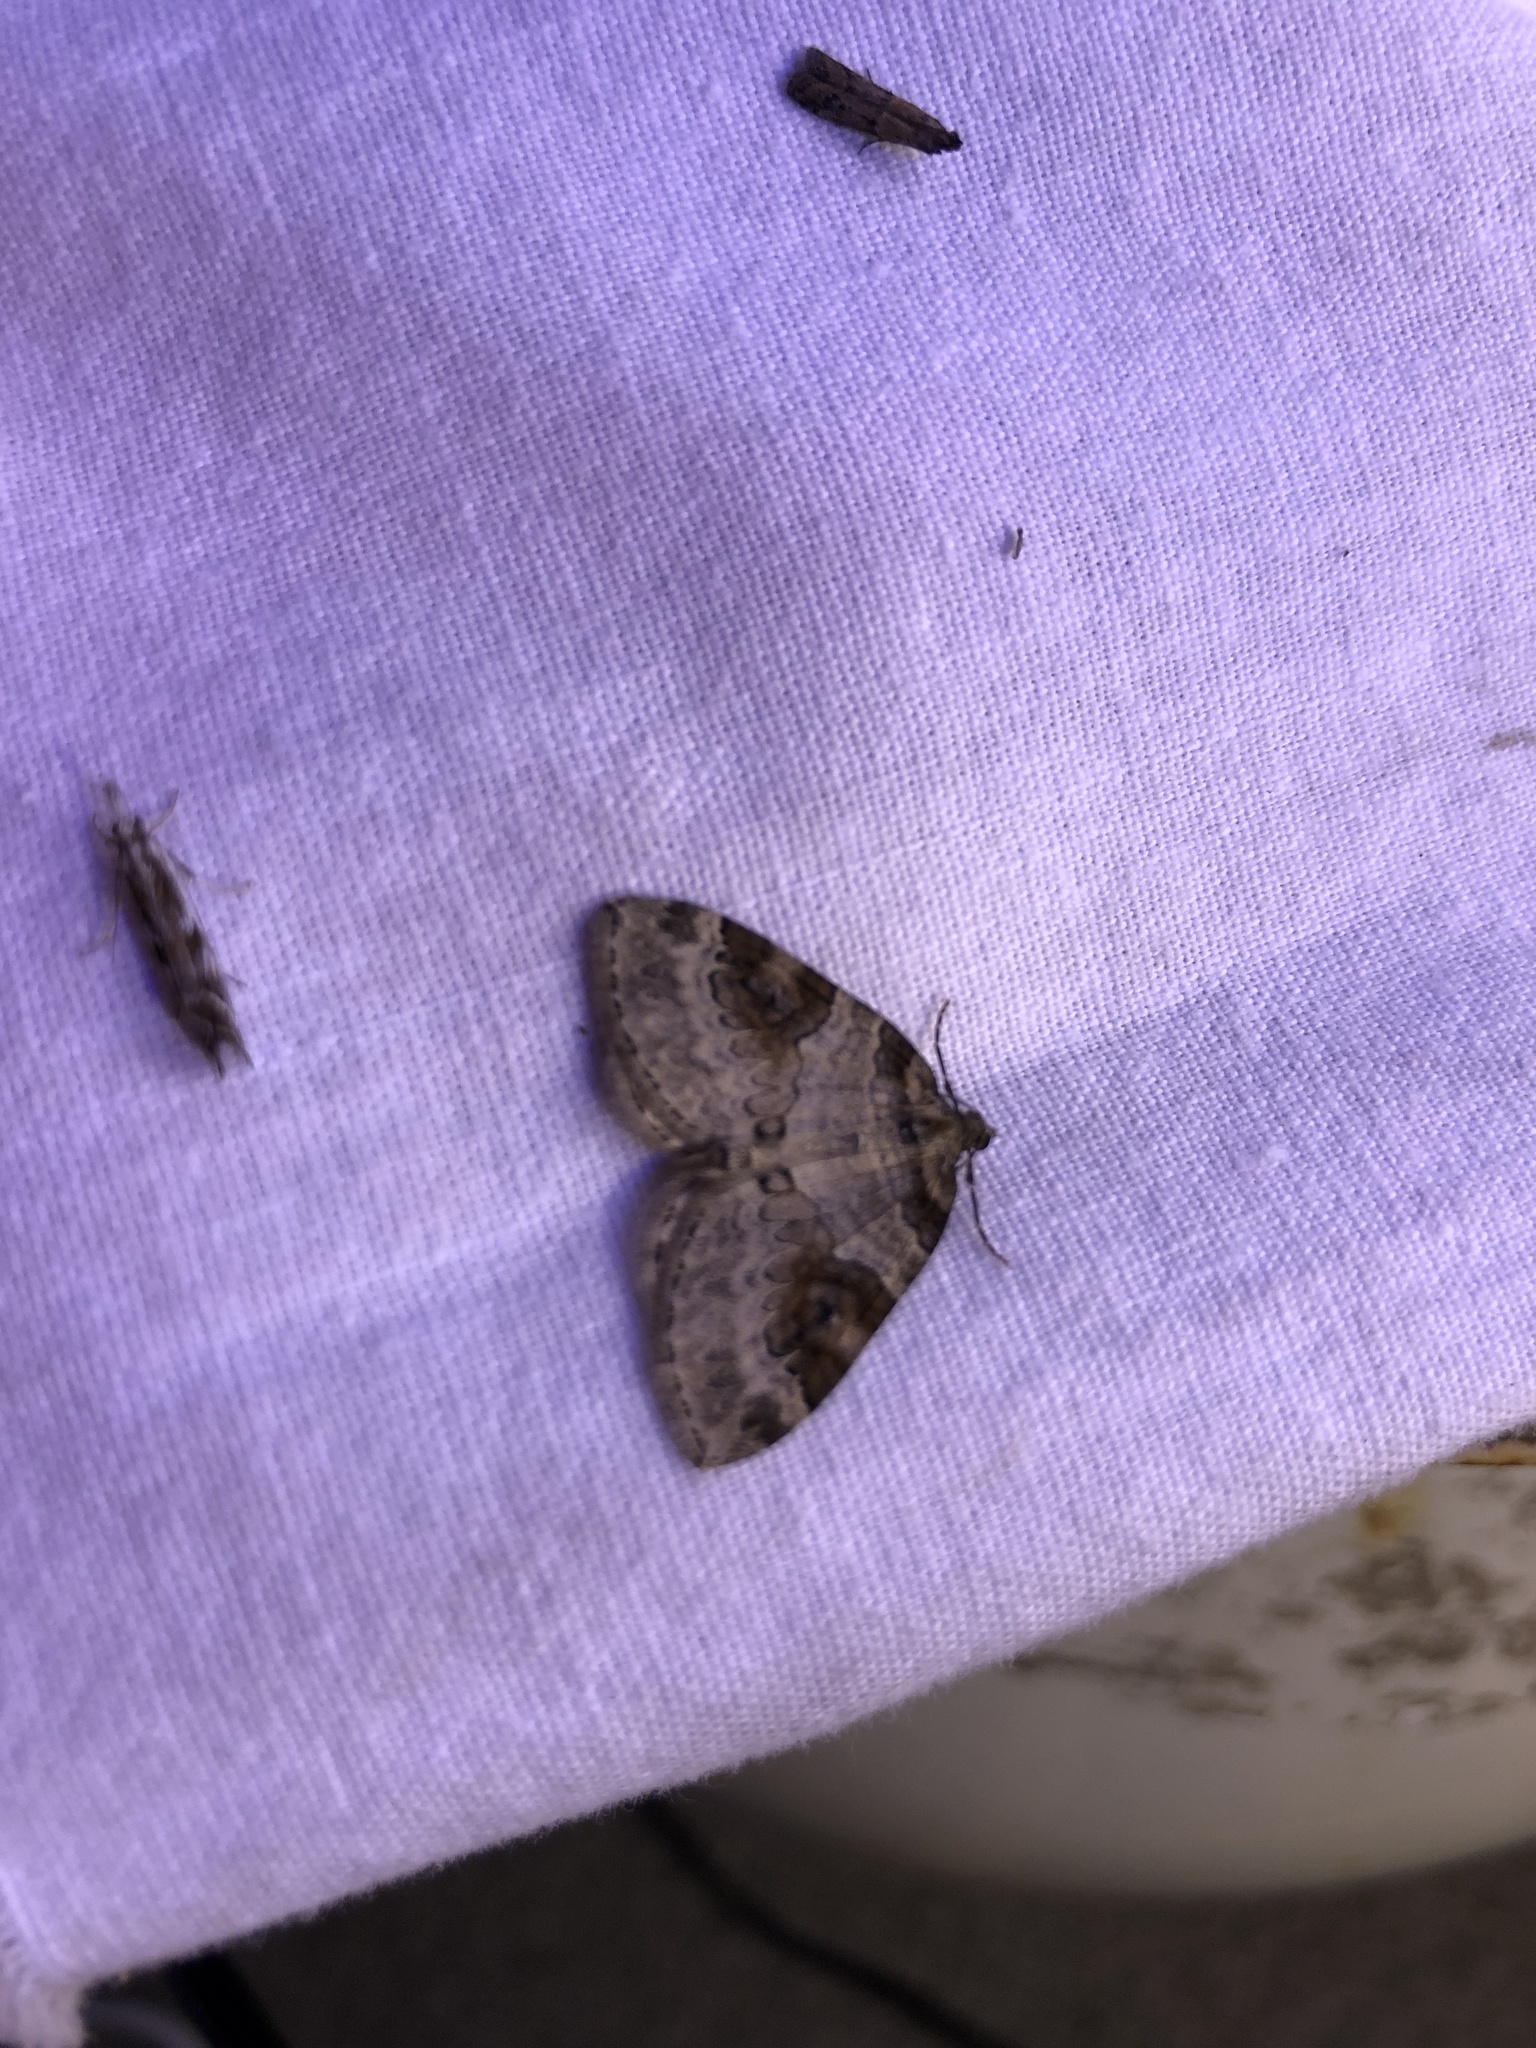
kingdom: Animalia
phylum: Arthropoda
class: Insecta
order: Lepidoptera
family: Geometridae
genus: Plemyria
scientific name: Plemyria georgii
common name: George's carpet moth
